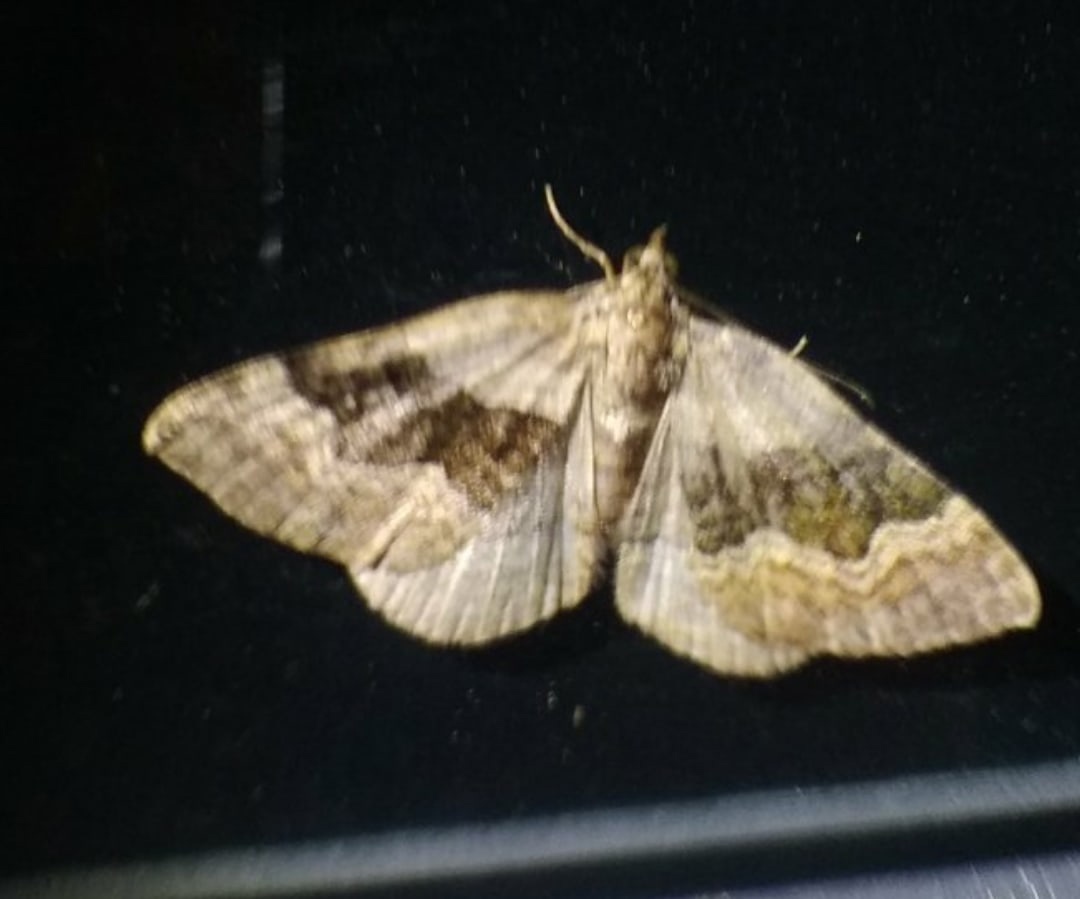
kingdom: Animalia
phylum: Arthropoda
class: Insecta
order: Lepidoptera
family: Geometridae
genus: Xanthorhoe
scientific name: Xanthorhoe quadrifasiata
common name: Large twin-spot carpet
